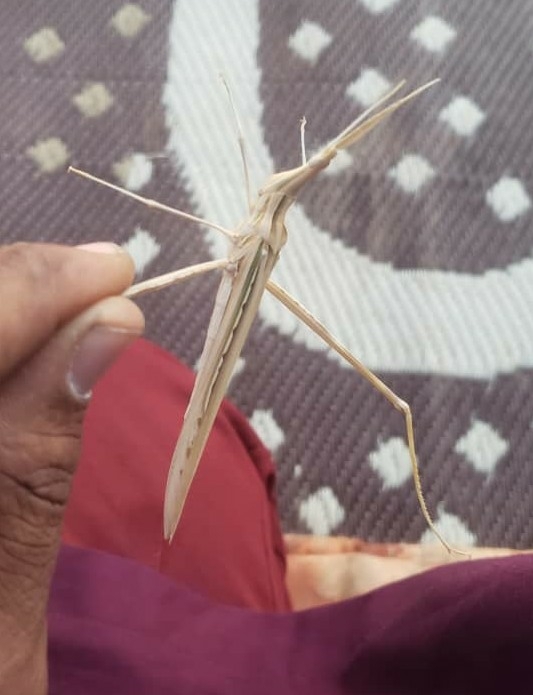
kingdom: Animalia
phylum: Arthropoda
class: Insecta
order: Orthoptera
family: Acrididae
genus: Truxalis
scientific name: Truxalis nasuta
